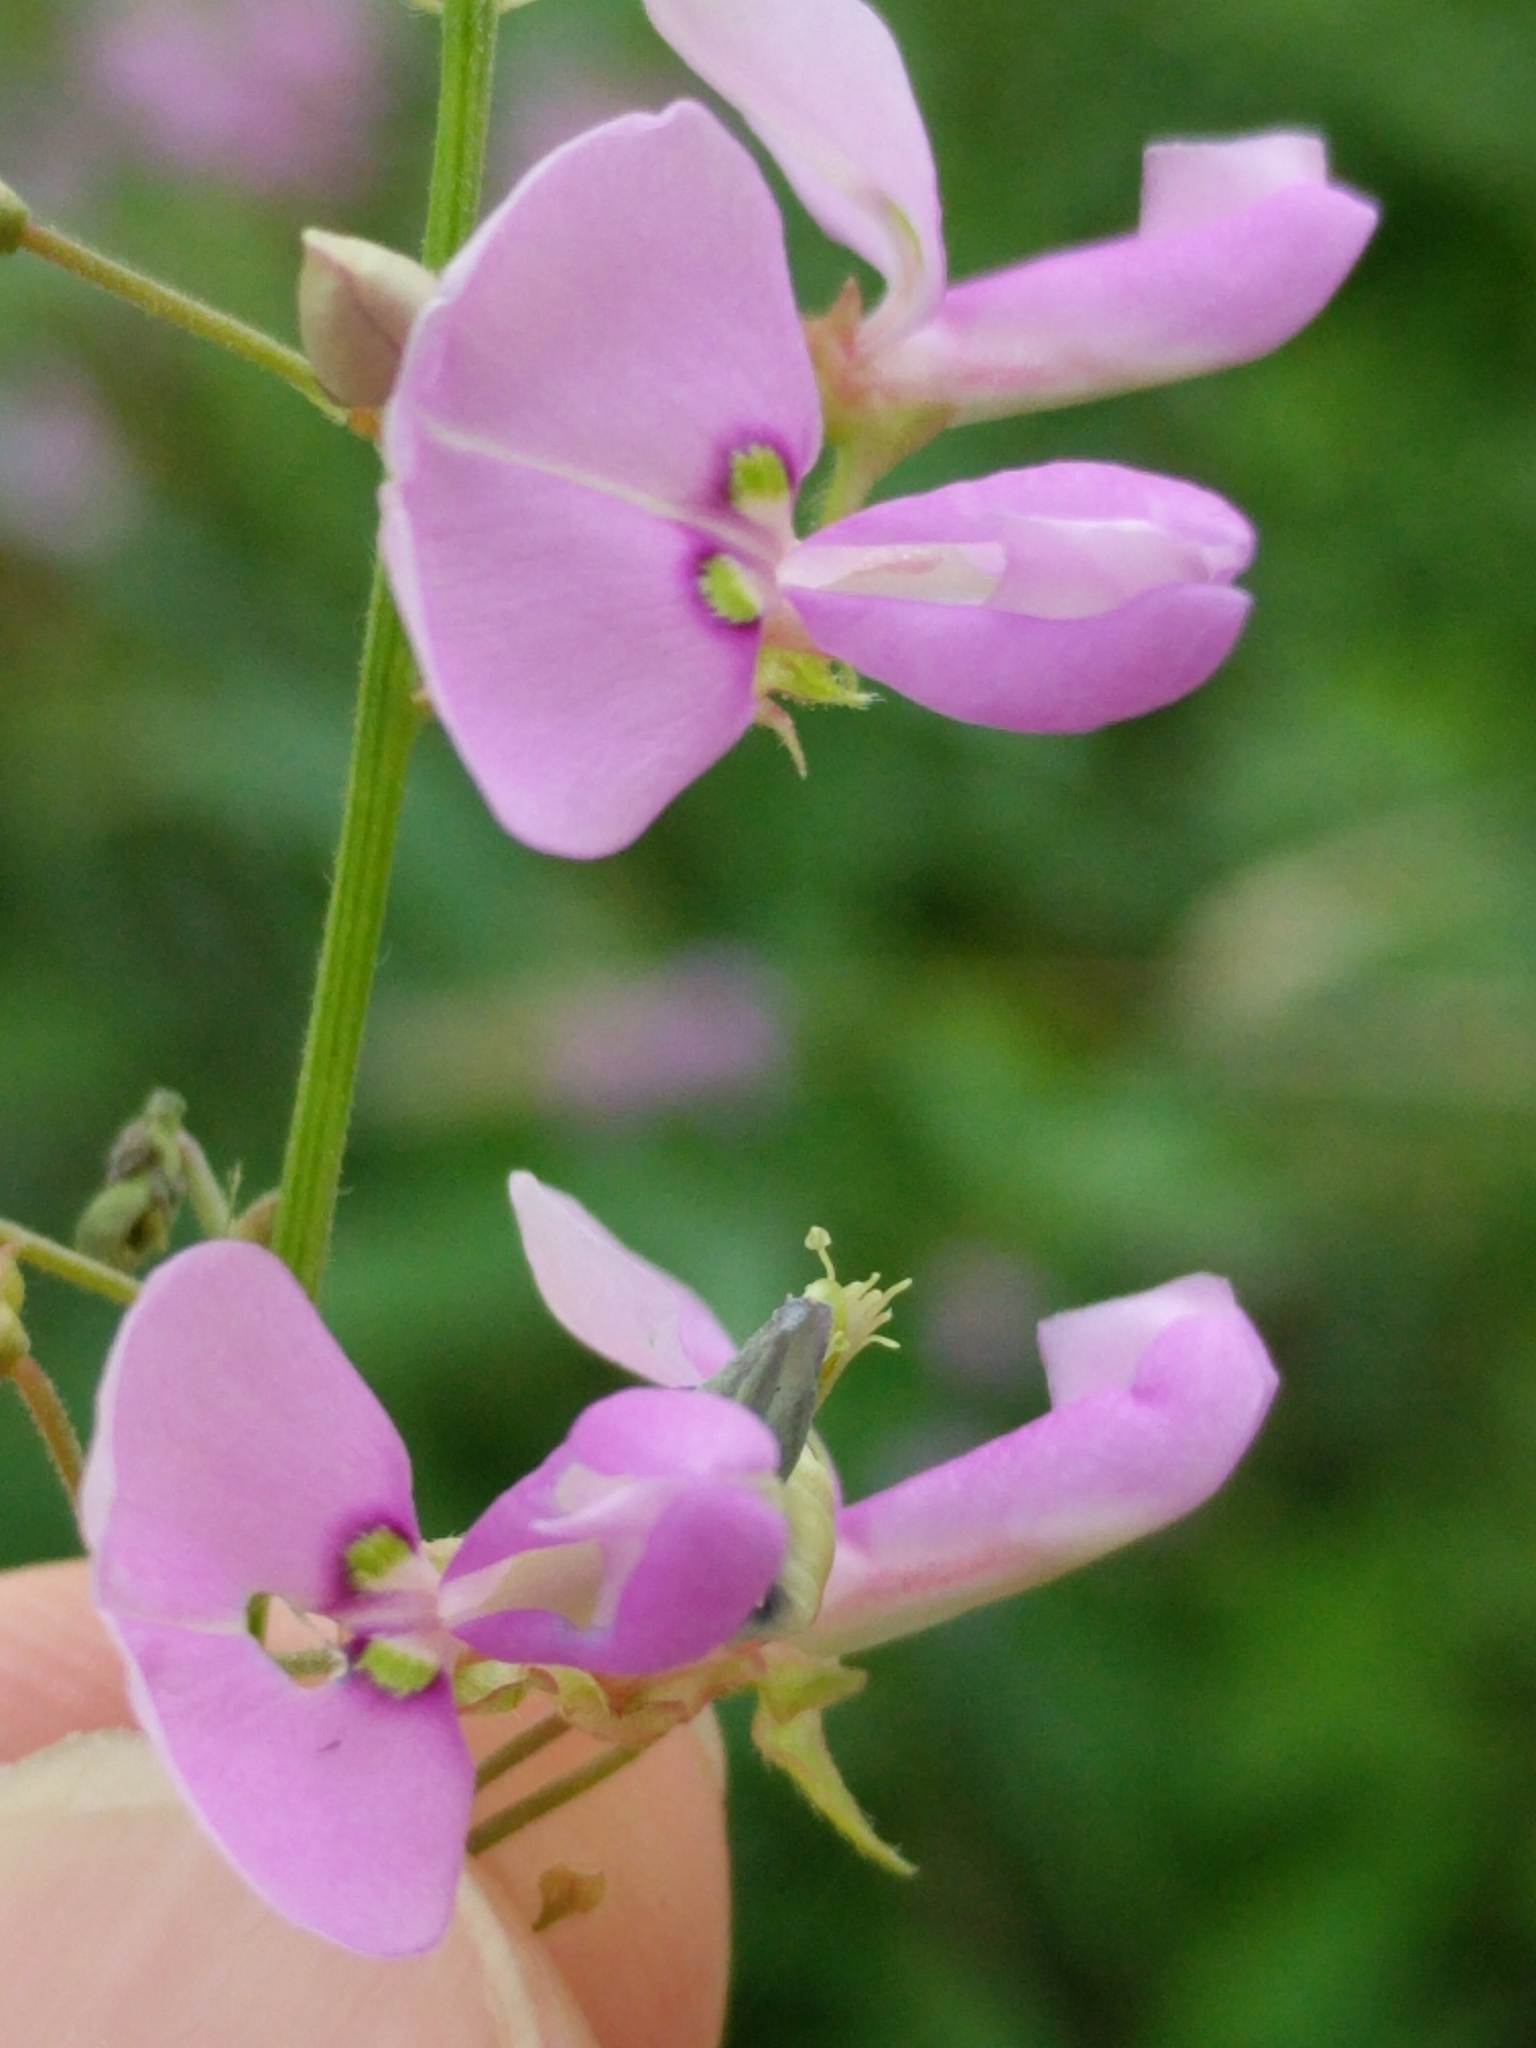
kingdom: Plantae
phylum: Tracheophyta
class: Magnoliopsida
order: Fabales
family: Fabaceae
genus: Desmodium
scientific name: Desmodium paniculatum
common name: Panicled tick-clover
